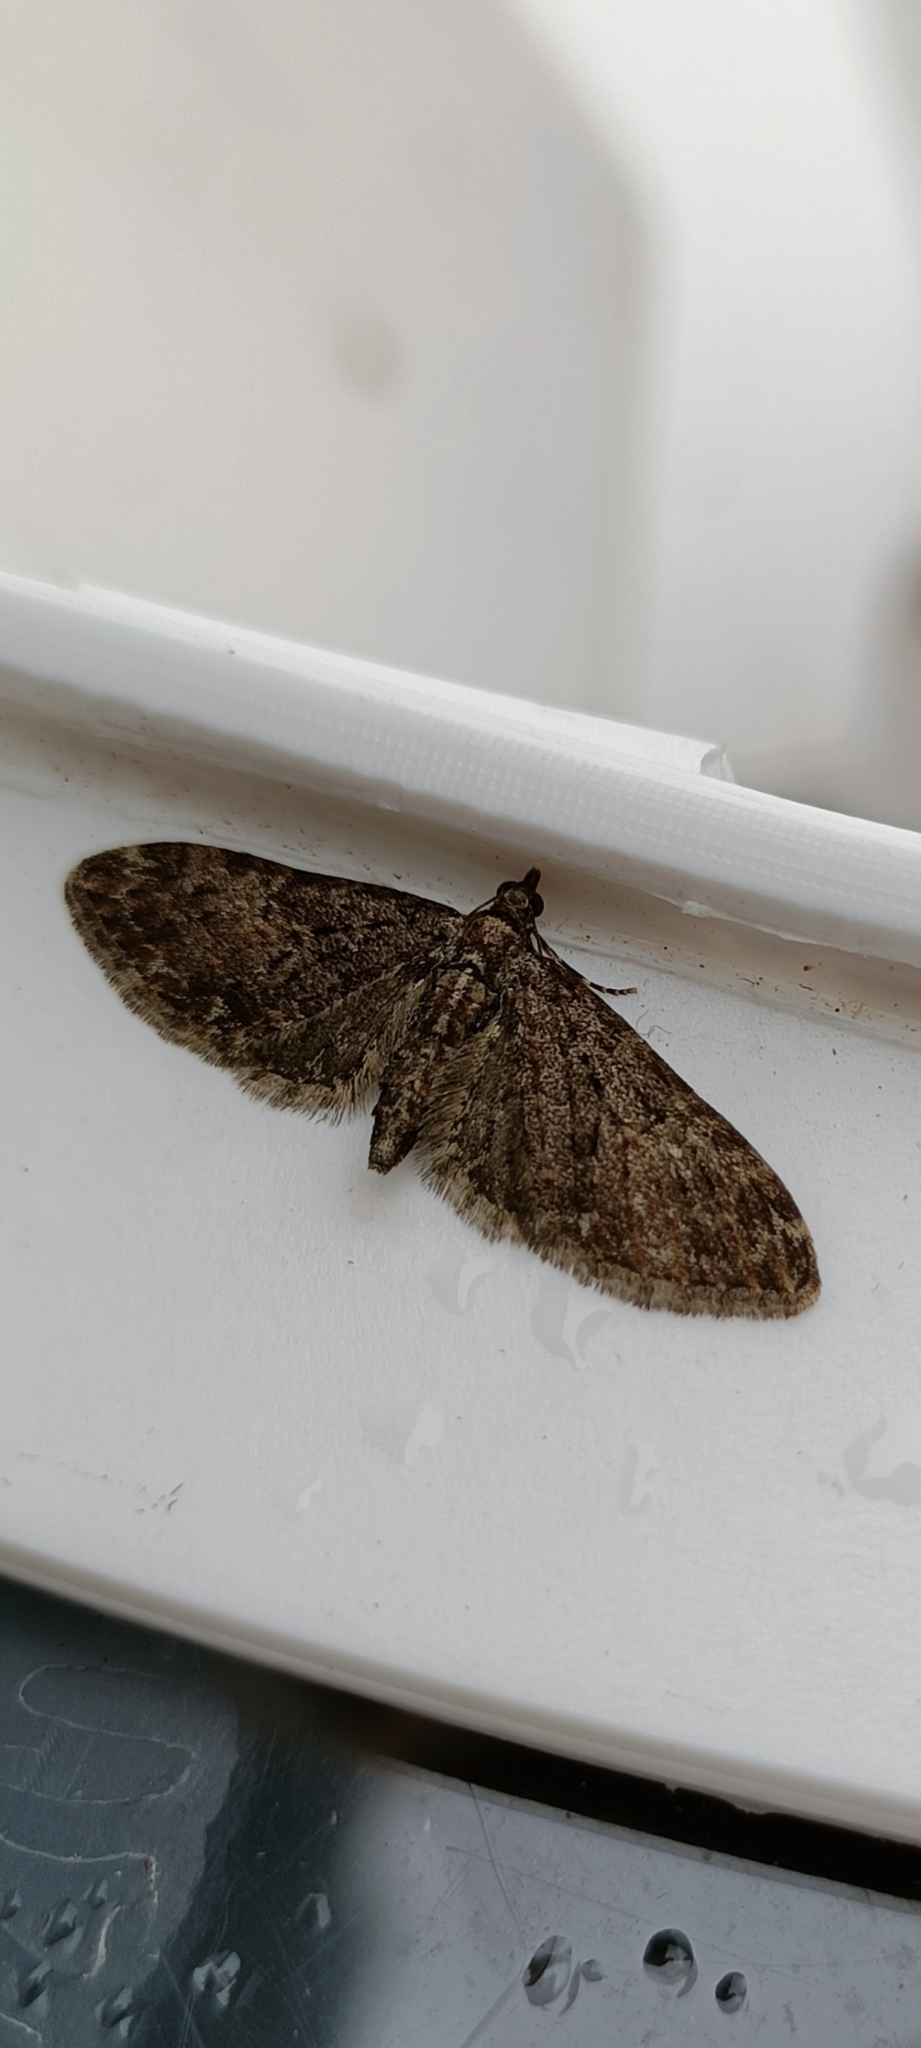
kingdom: Animalia
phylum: Arthropoda
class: Insecta
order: Lepidoptera
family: Geometridae
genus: Eupithecia
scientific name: Eupithecia abbreviata
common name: Brindled pug
